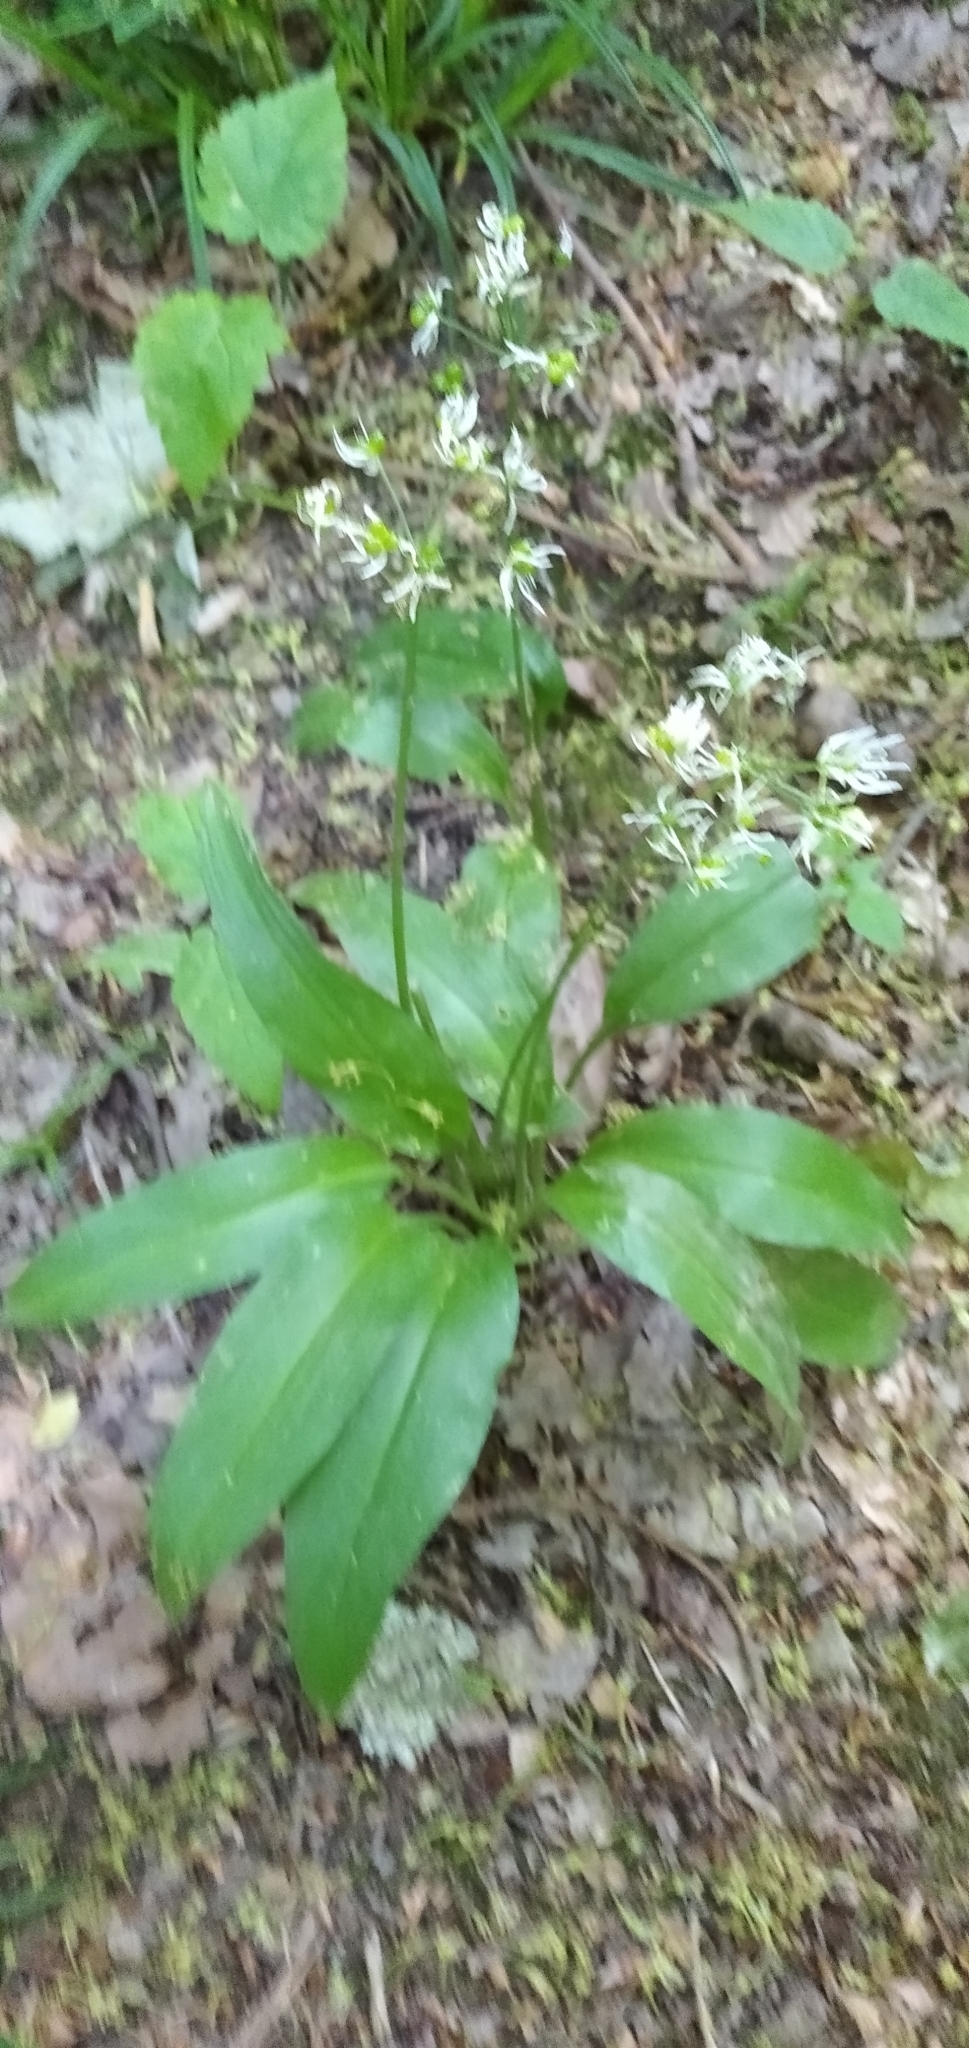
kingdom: Plantae
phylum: Tracheophyta
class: Liliopsida
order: Asparagales
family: Amaryllidaceae
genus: Allium
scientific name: Allium ursinum
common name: Ramsons
